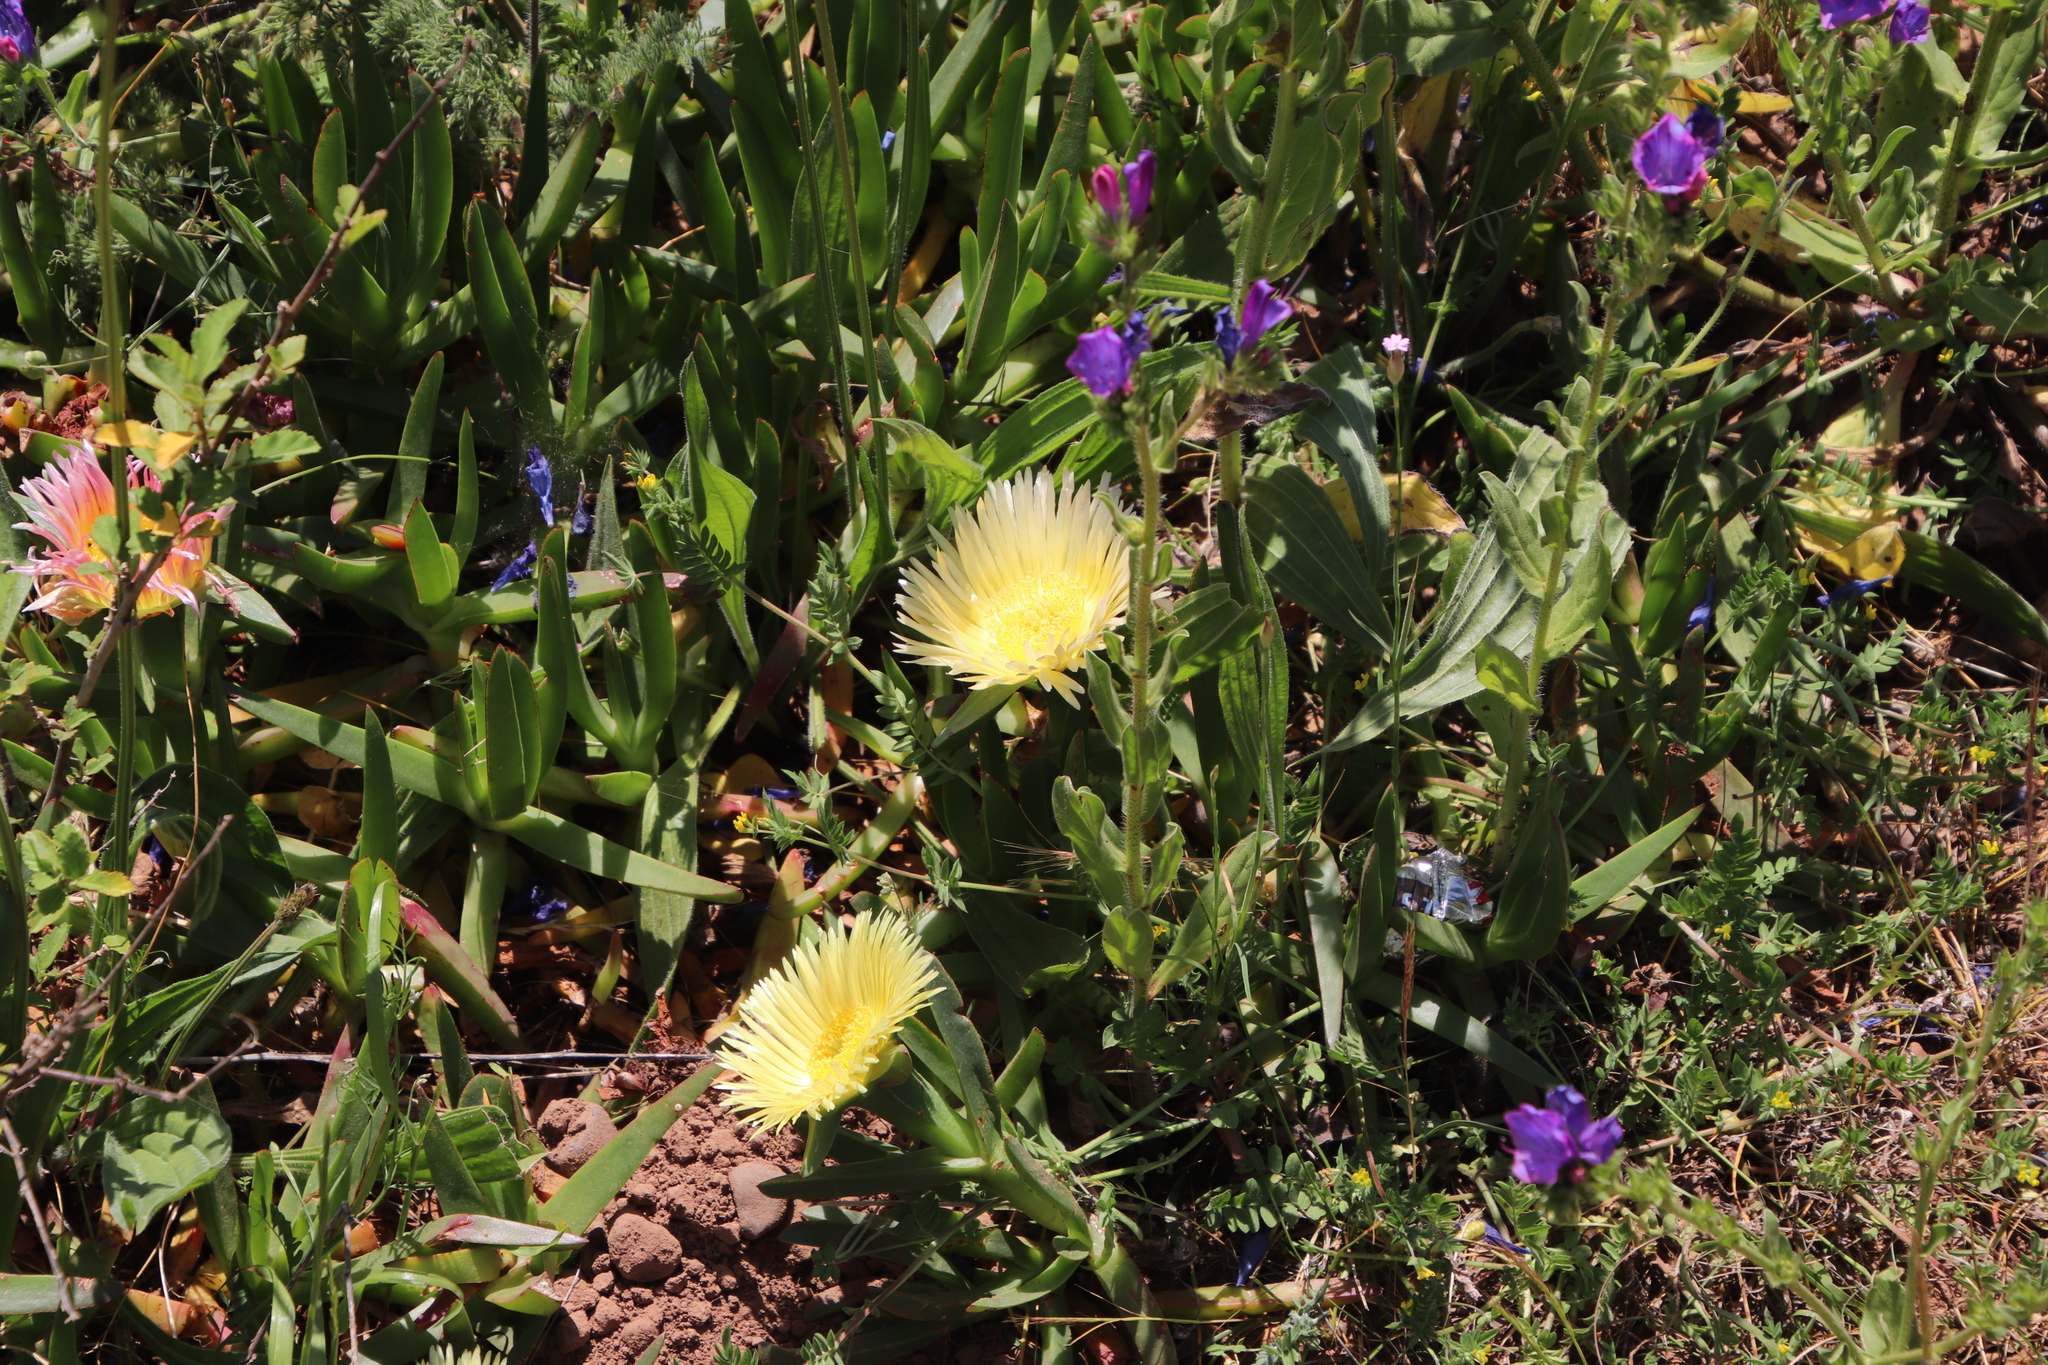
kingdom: Plantae
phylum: Tracheophyta
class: Magnoliopsida
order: Caryophyllales
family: Aizoaceae
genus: Carpobrotus
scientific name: Carpobrotus edulis
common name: Hottentot-fig
